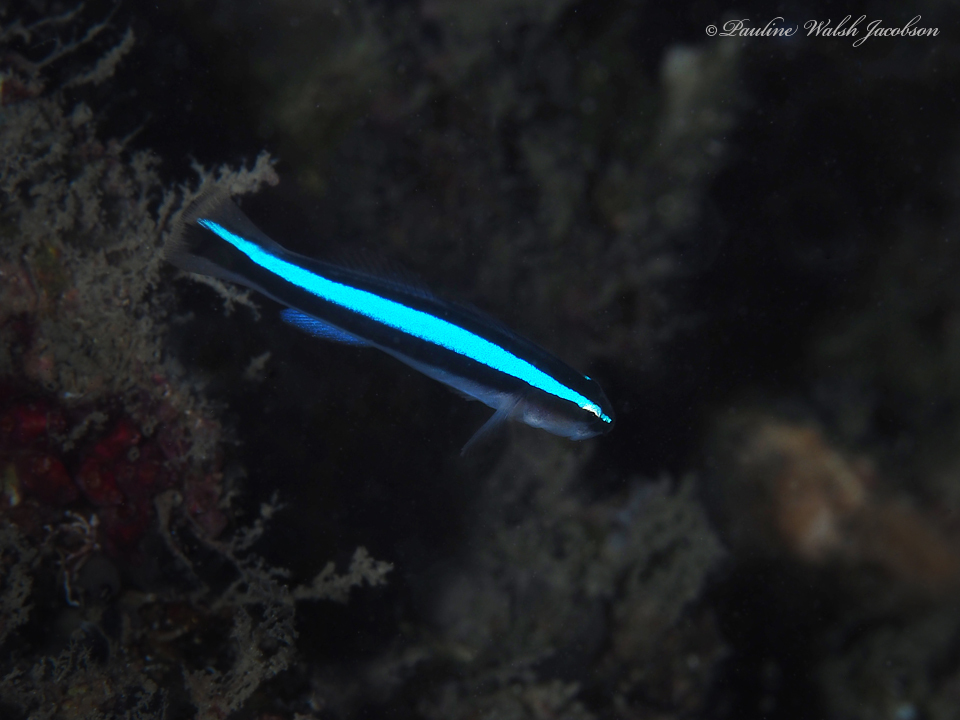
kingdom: Animalia
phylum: Chordata
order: Perciformes
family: Gobiidae
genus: Elacatinus
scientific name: Elacatinus oceanops
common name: Northern neon goby
